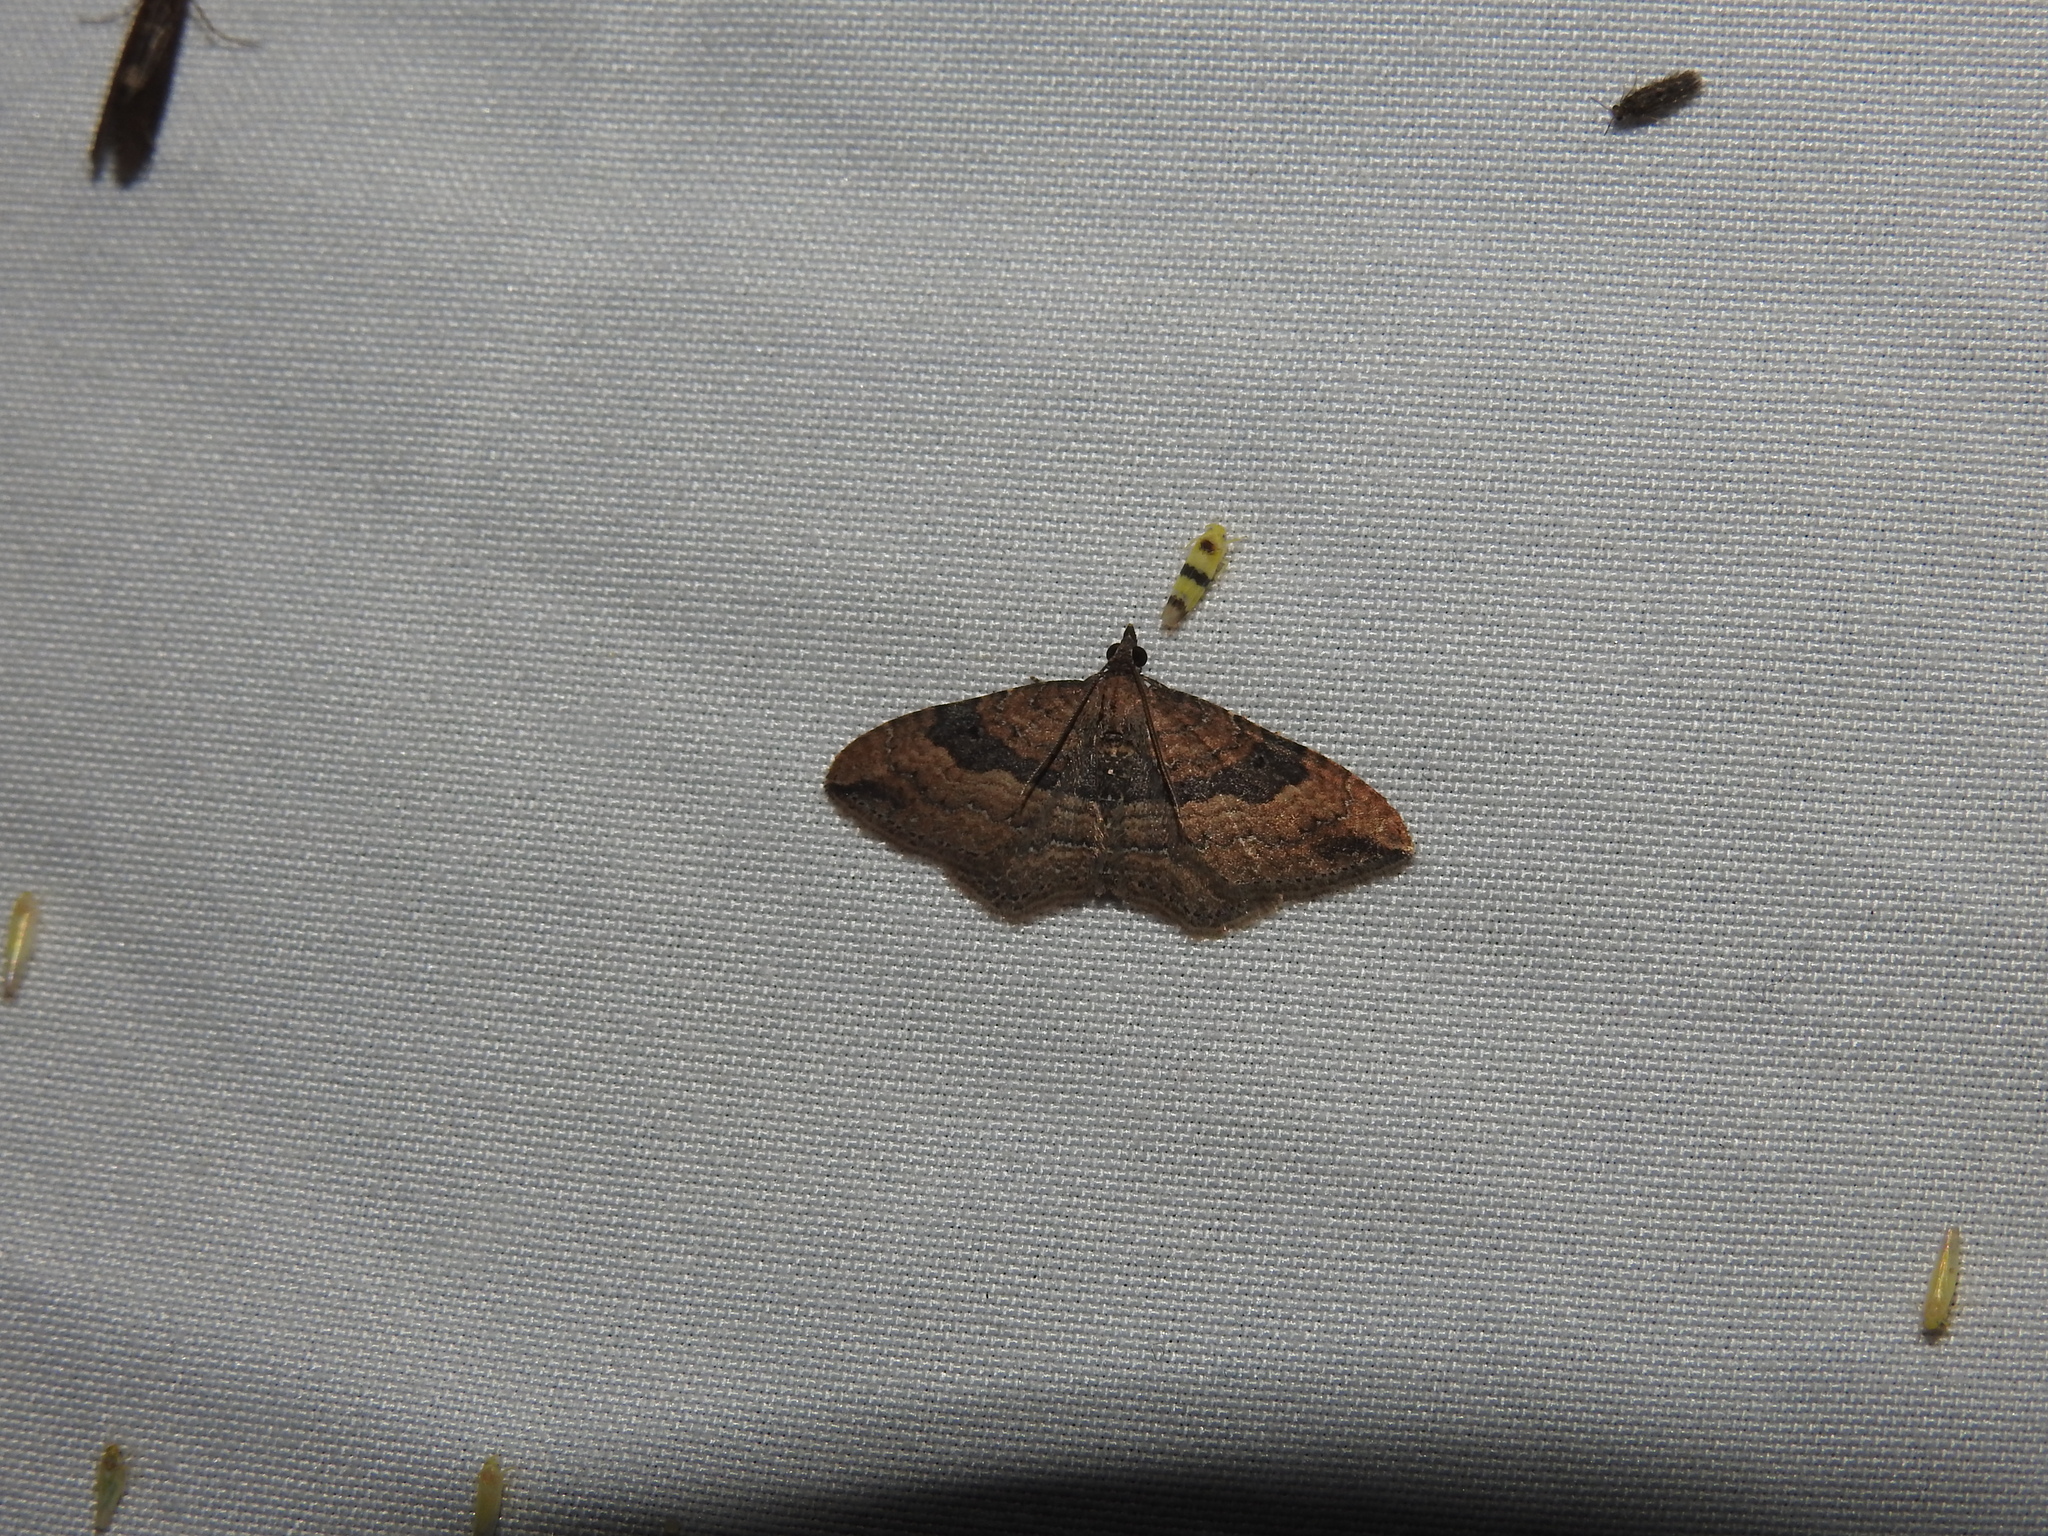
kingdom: Animalia
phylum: Arthropoda
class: Insecta
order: Lepidoptera
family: Geometridae
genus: Orthonama
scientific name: Orthonama obstipata
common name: The gem
